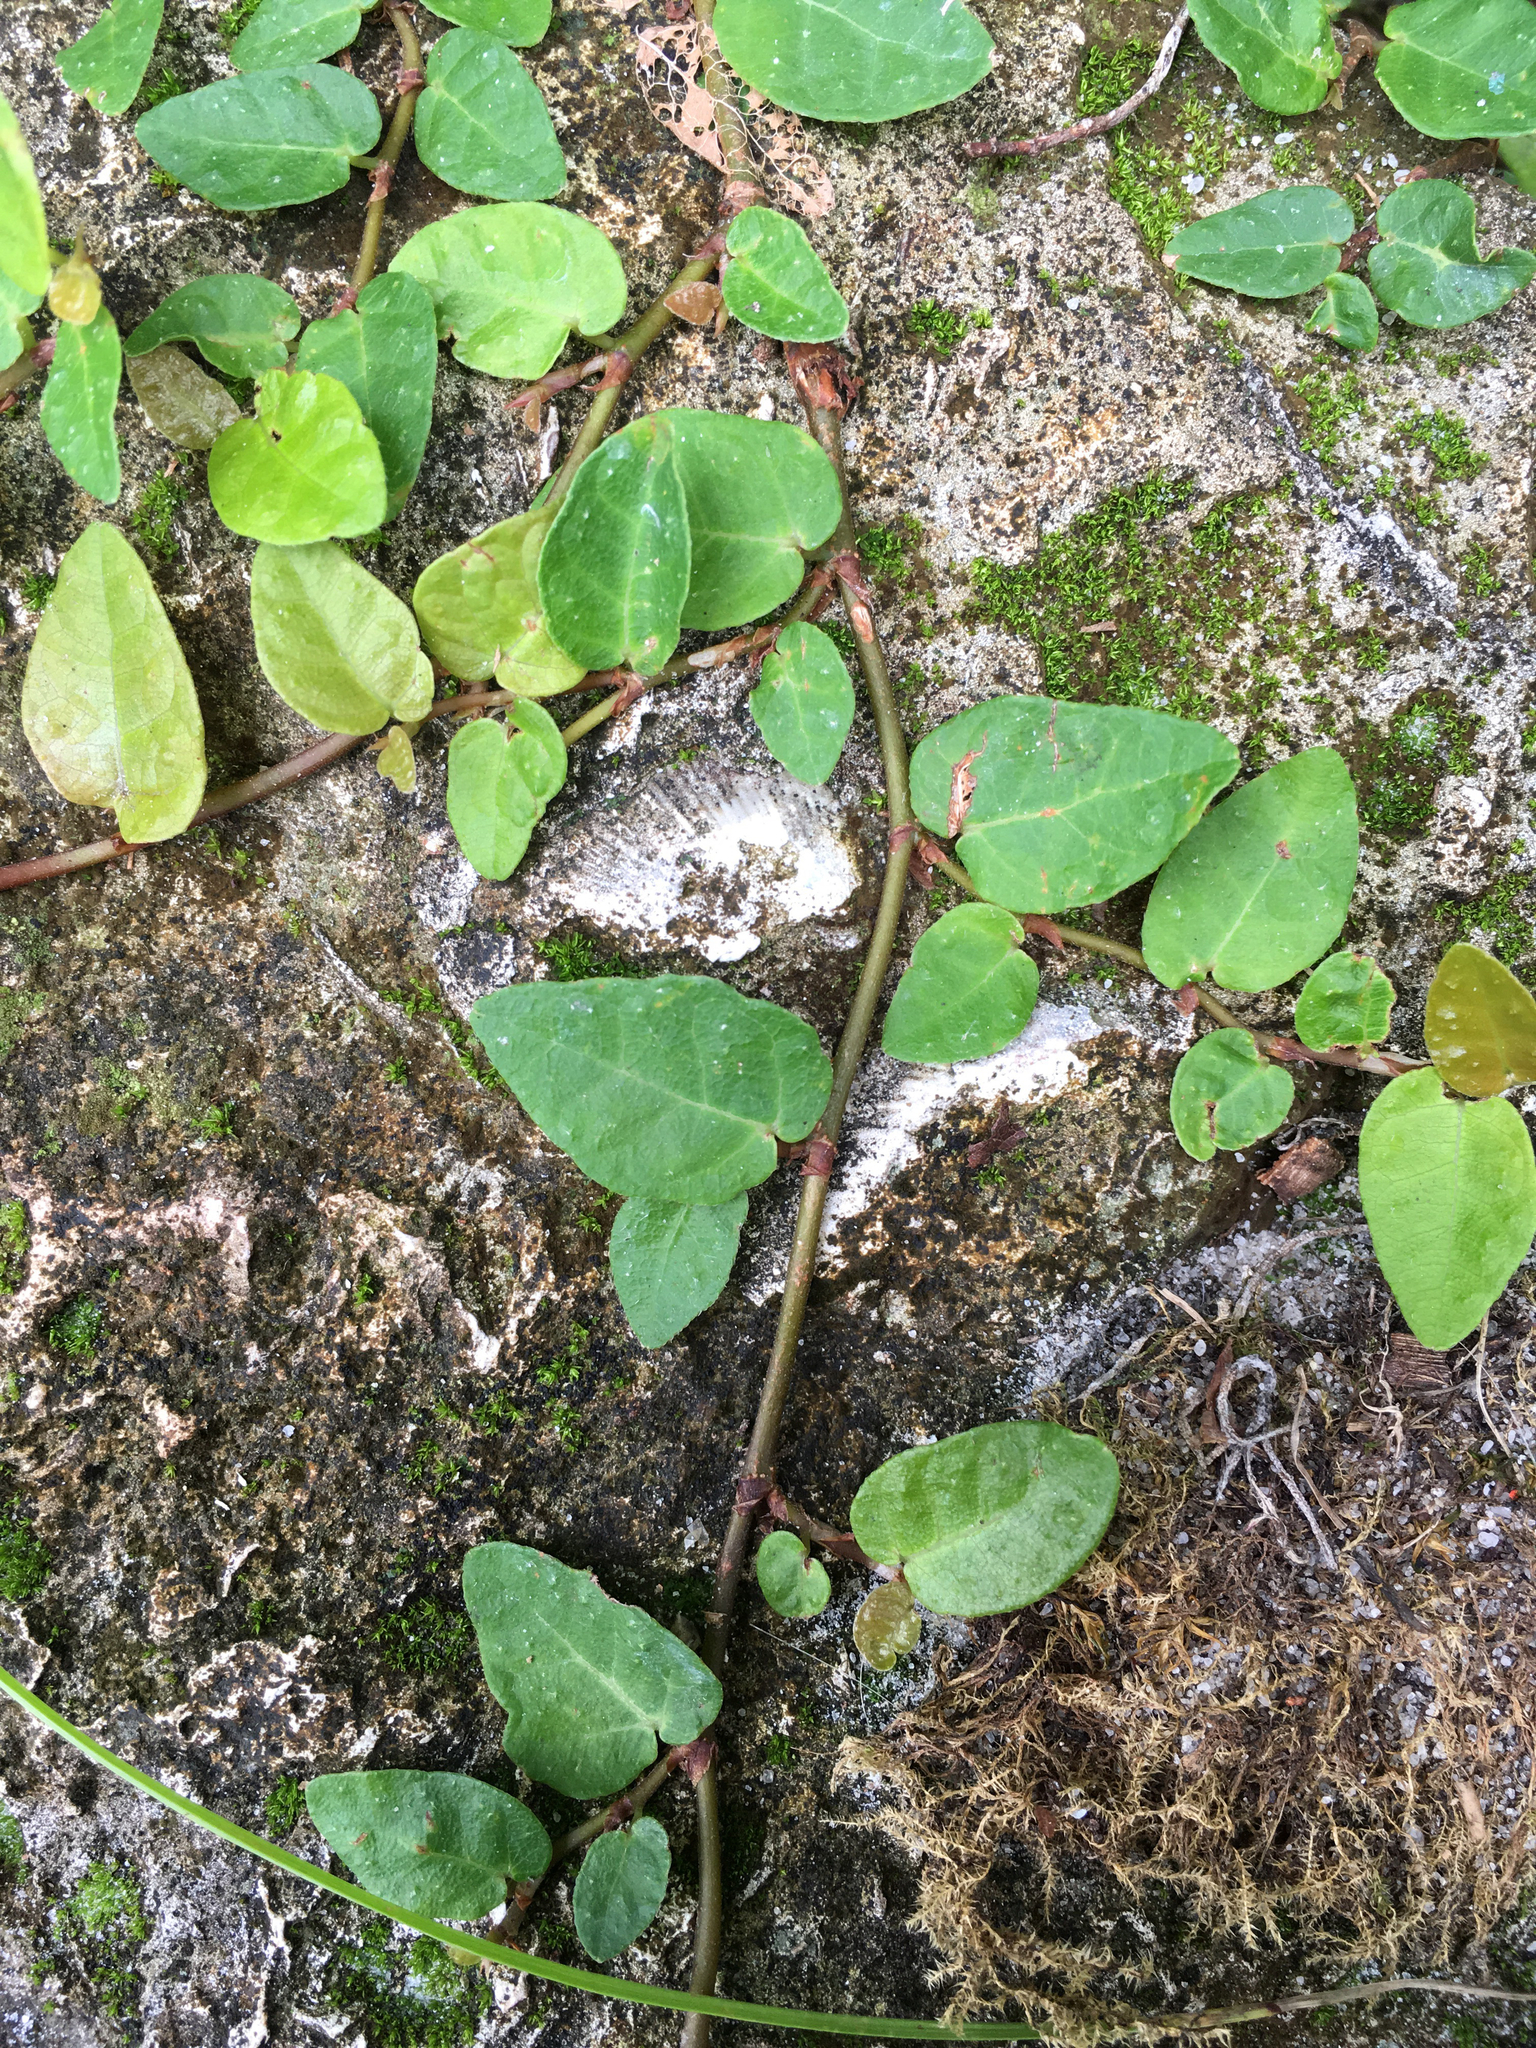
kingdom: Plantae
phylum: Tracheophyta
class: Magnoliopsida
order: Rosales
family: Moraceae
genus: Ficus
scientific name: Ficus pumila
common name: Climbingfig
